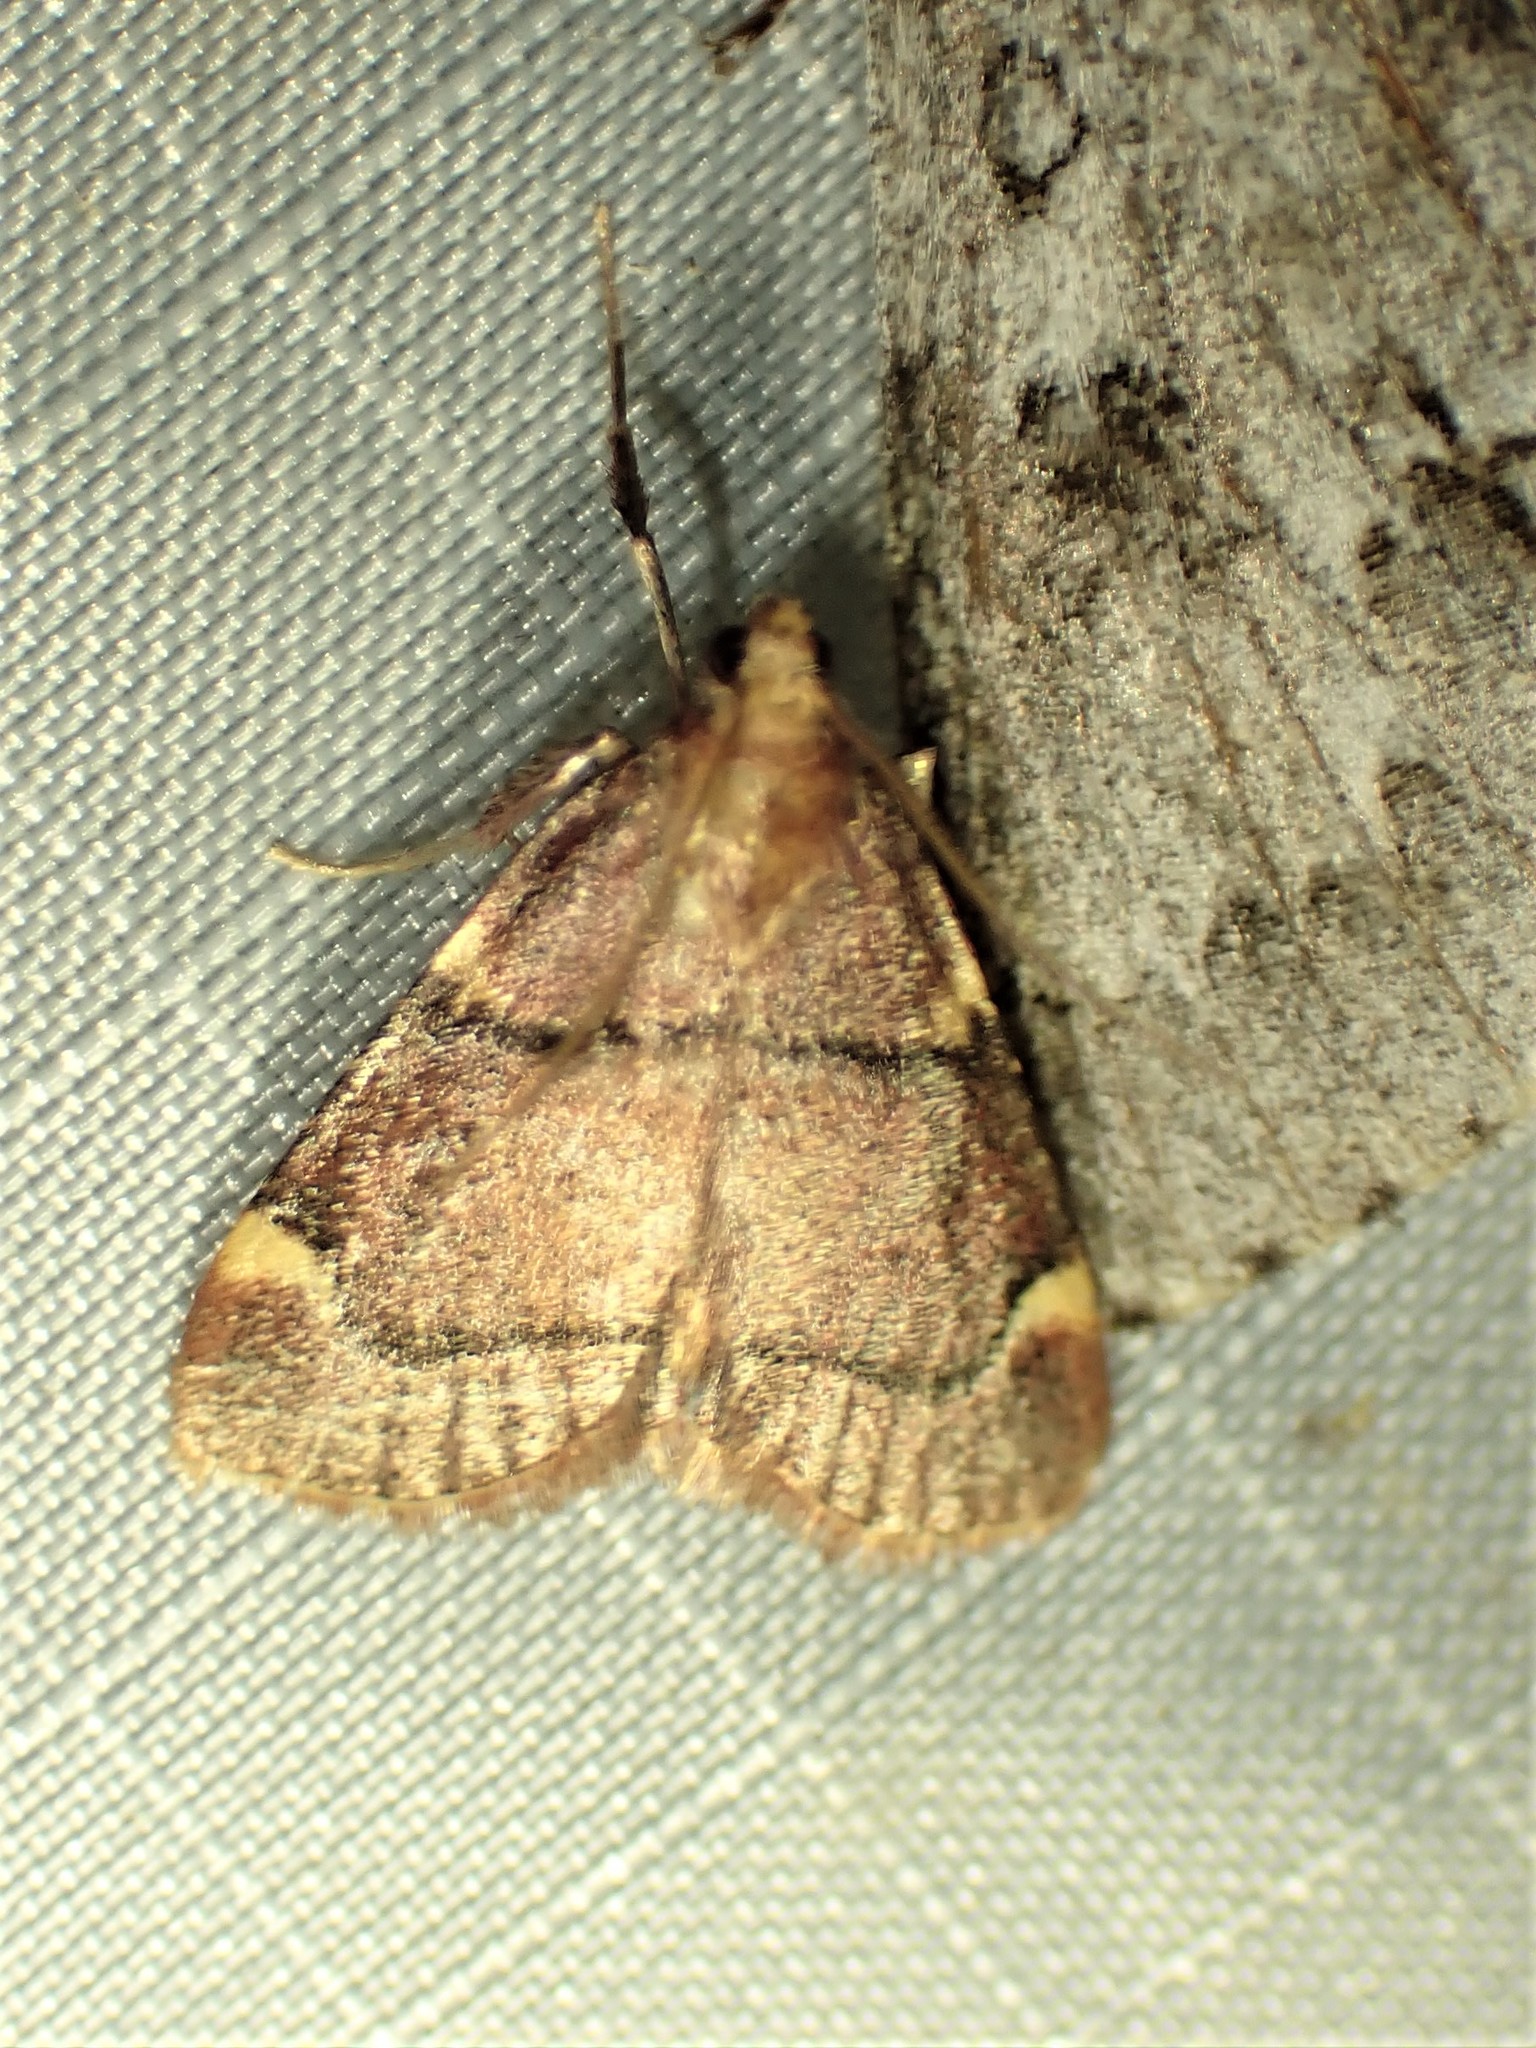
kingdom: Animalia
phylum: Arthropoda
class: Insecta
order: Lepidoptera
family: Pyralidae
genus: Hypsopygia
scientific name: Hypsopygia thymetusalis
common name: Spruce needleworm moth
